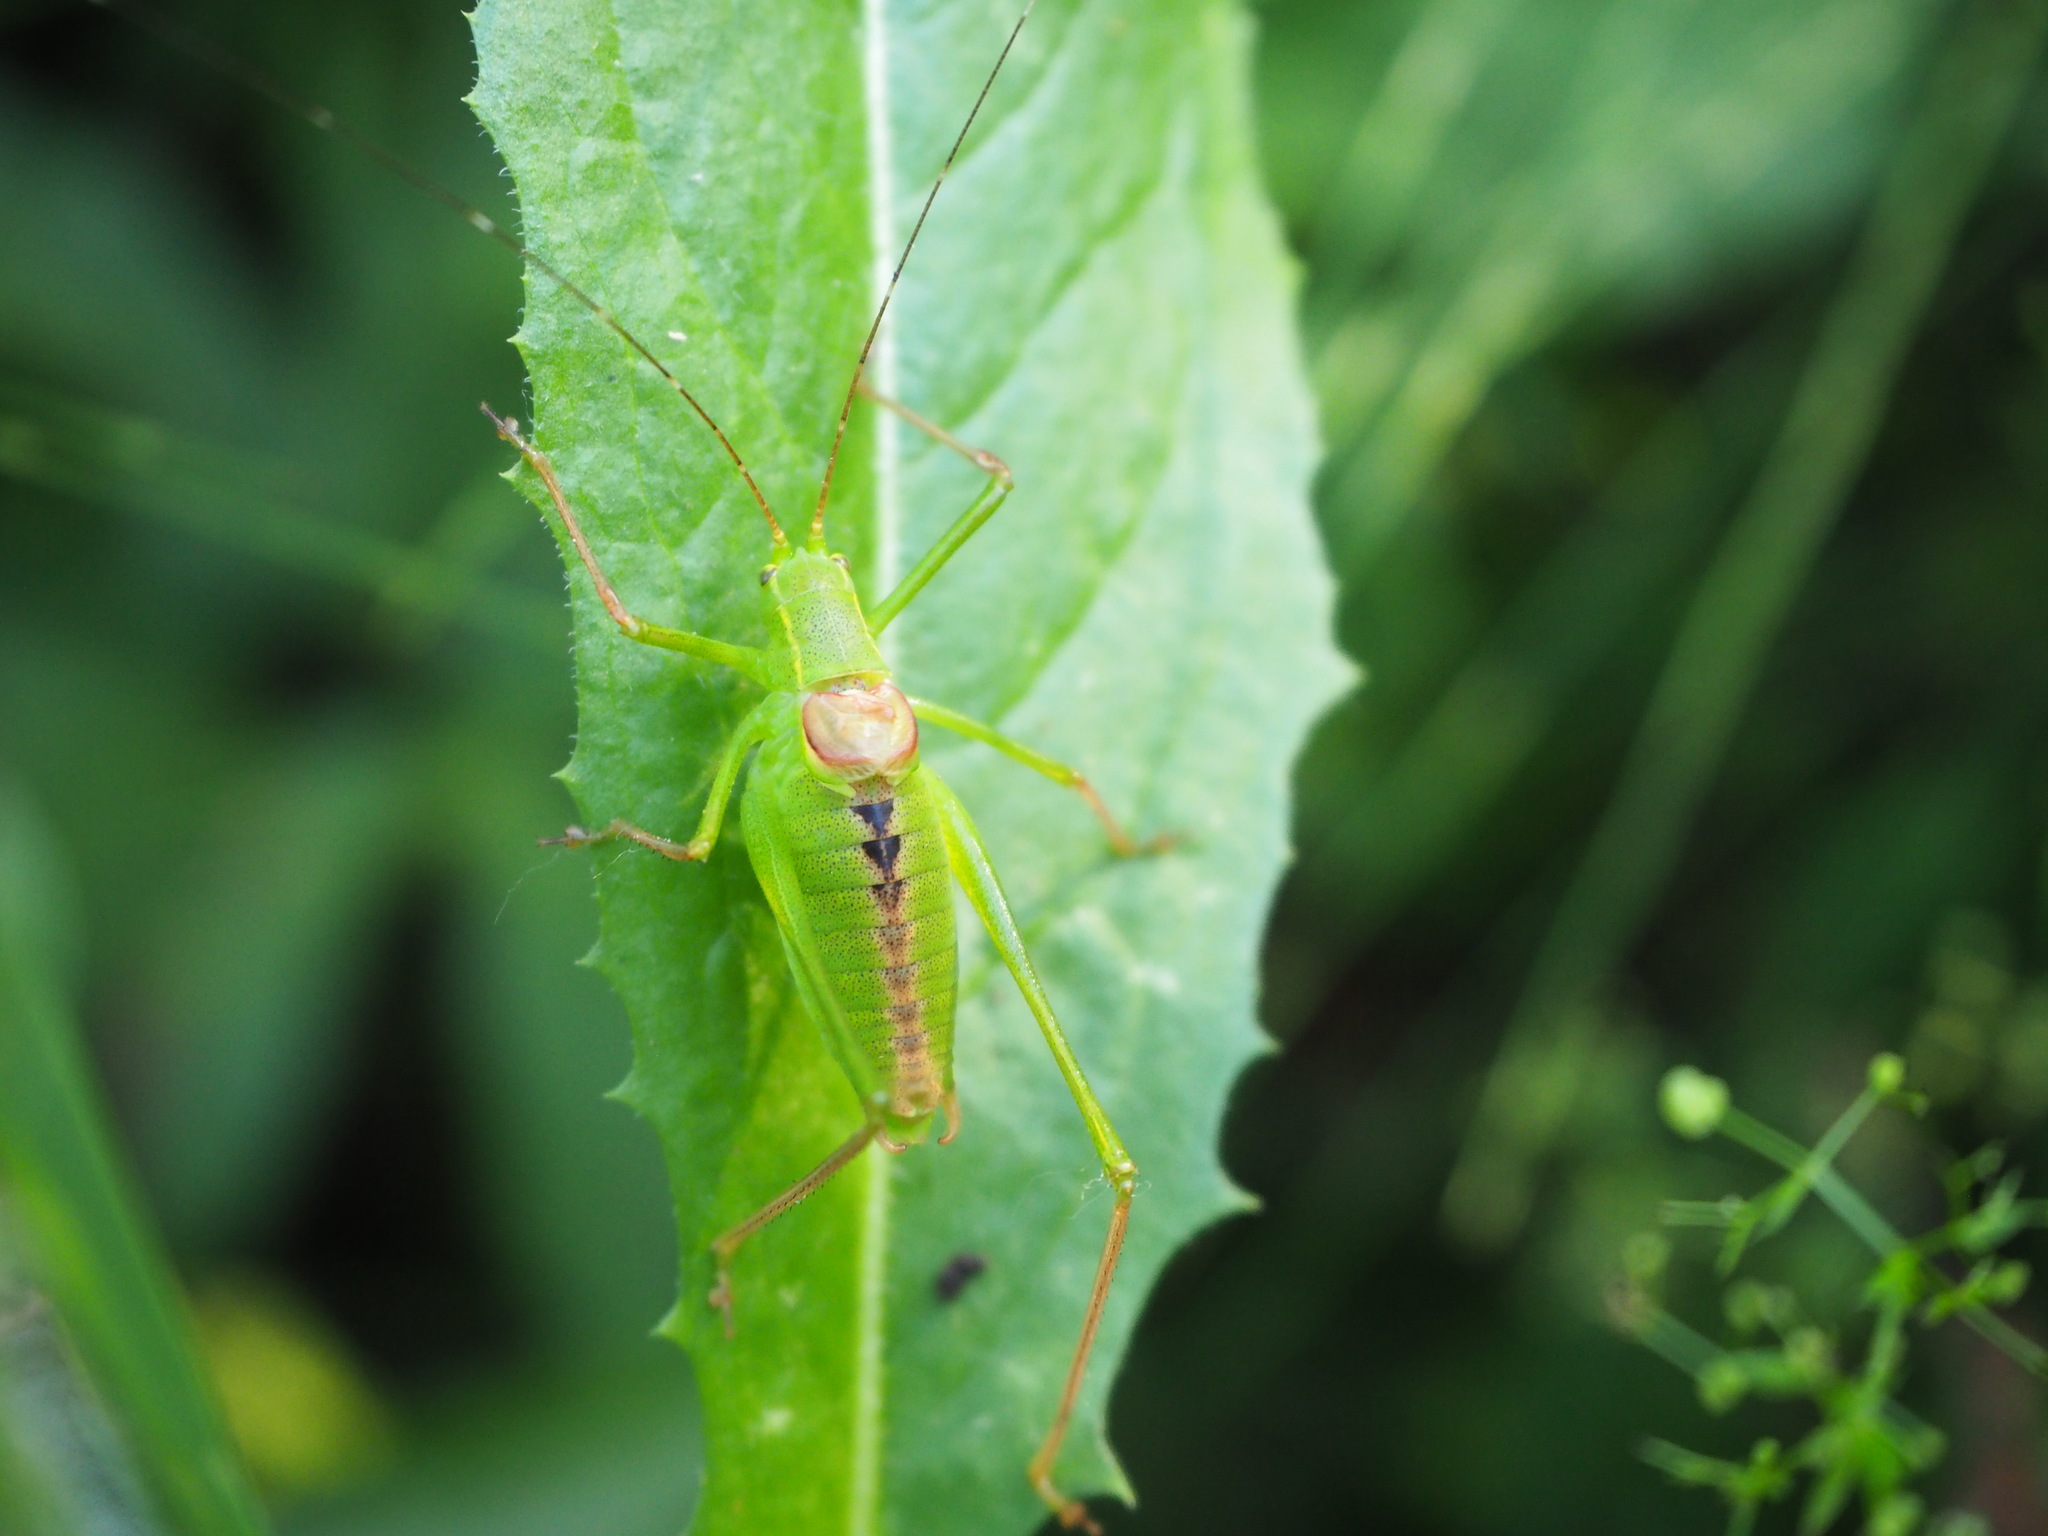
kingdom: Animalia
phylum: Arthropoda
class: Insecta
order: Orthoptera
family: Tettigoniidae
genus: Leptophyes
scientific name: Leptophyes laticauda
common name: Long-tailed speckled bush-cricket
